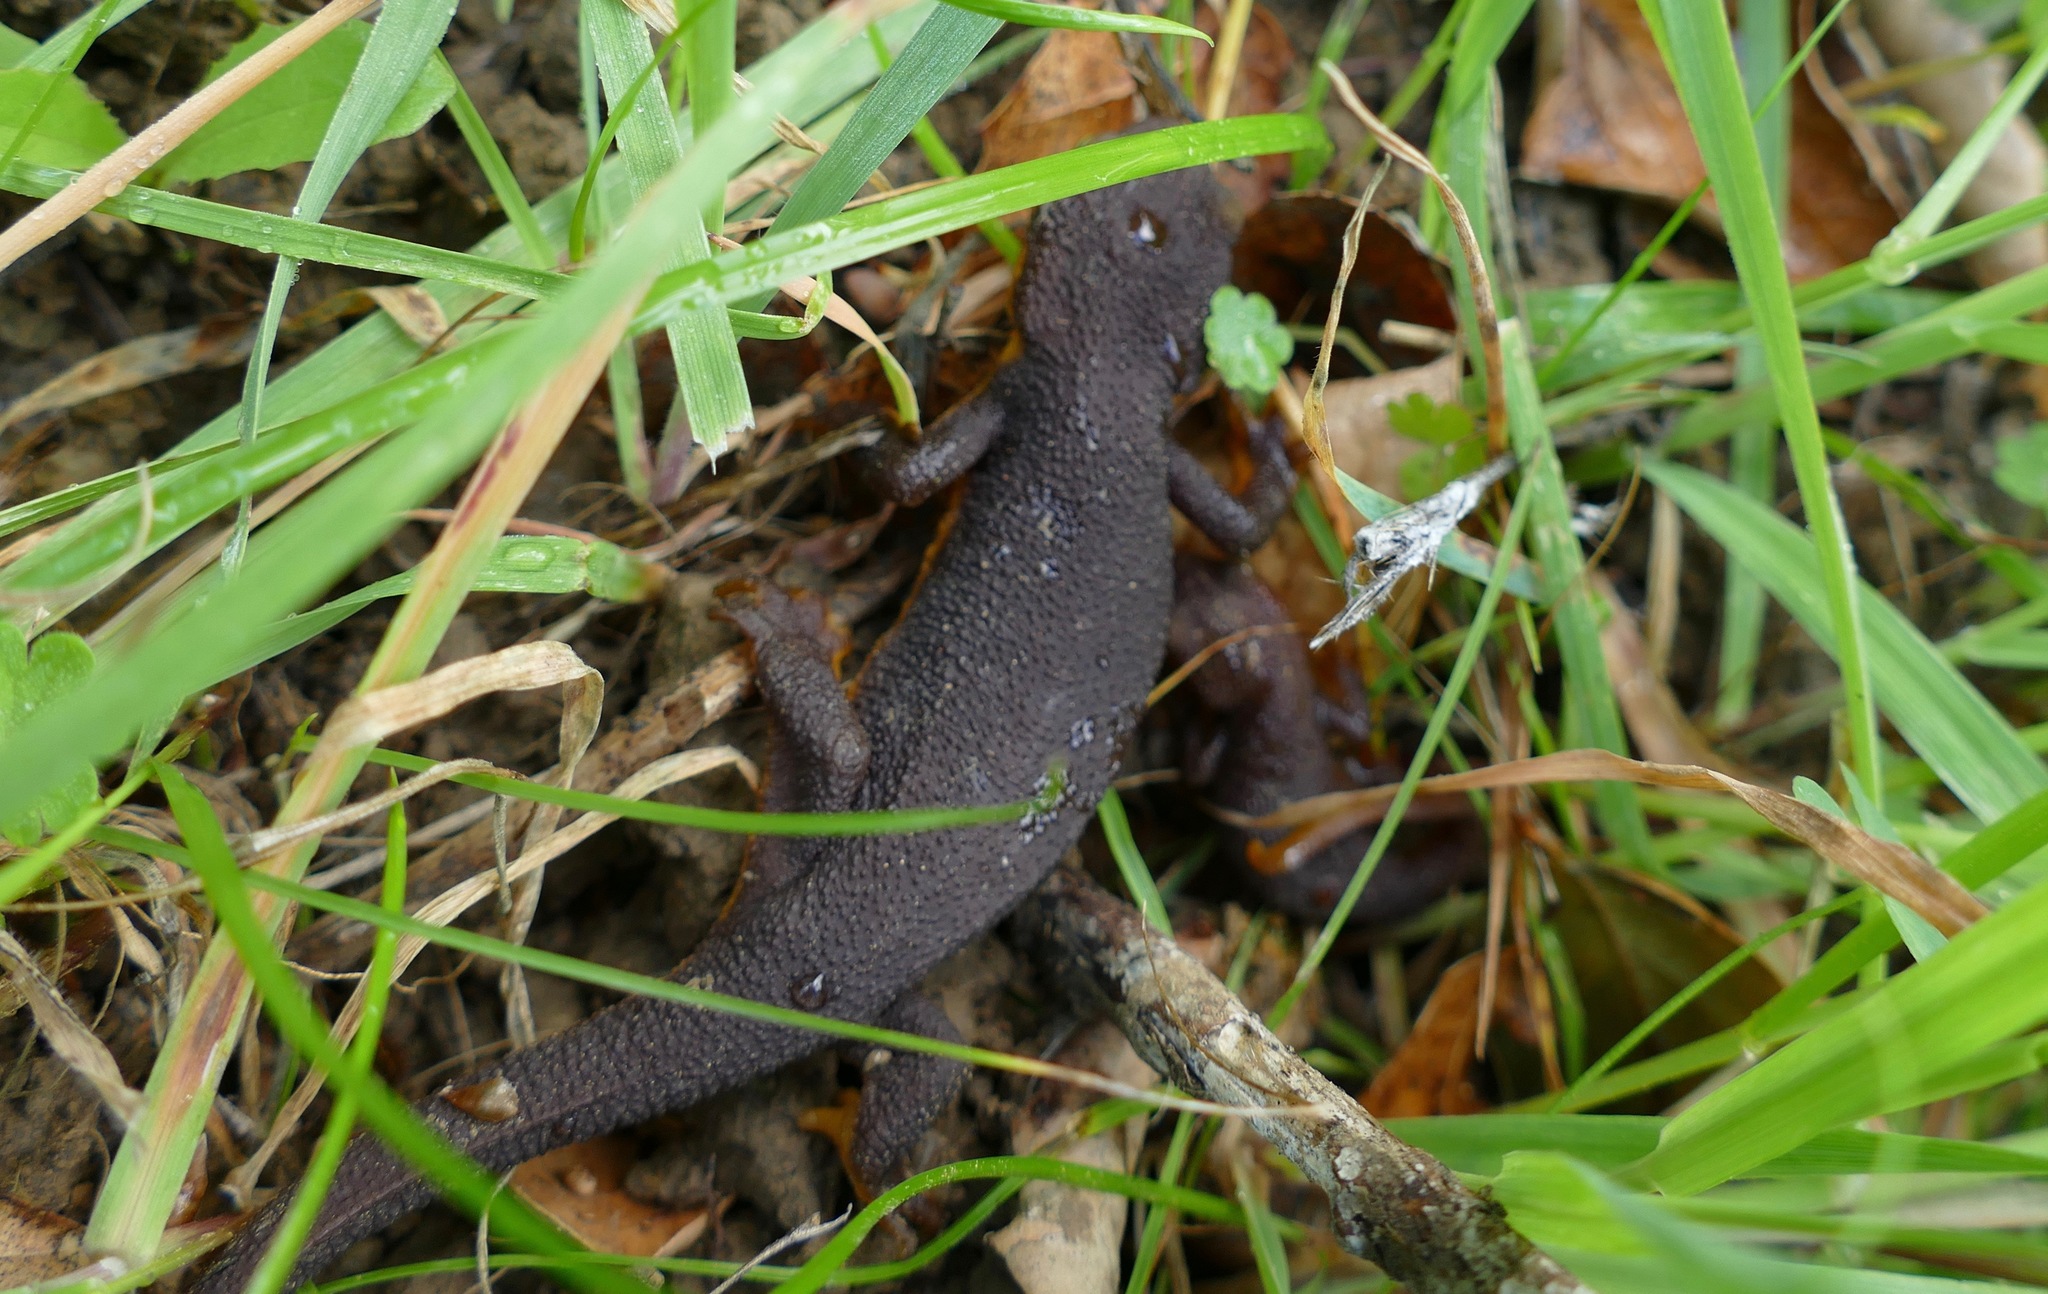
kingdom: Animalia
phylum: Chordata
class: Amphibia
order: Caudata
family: Salamandridae
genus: Taricha
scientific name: Taricha torosa
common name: California newt
